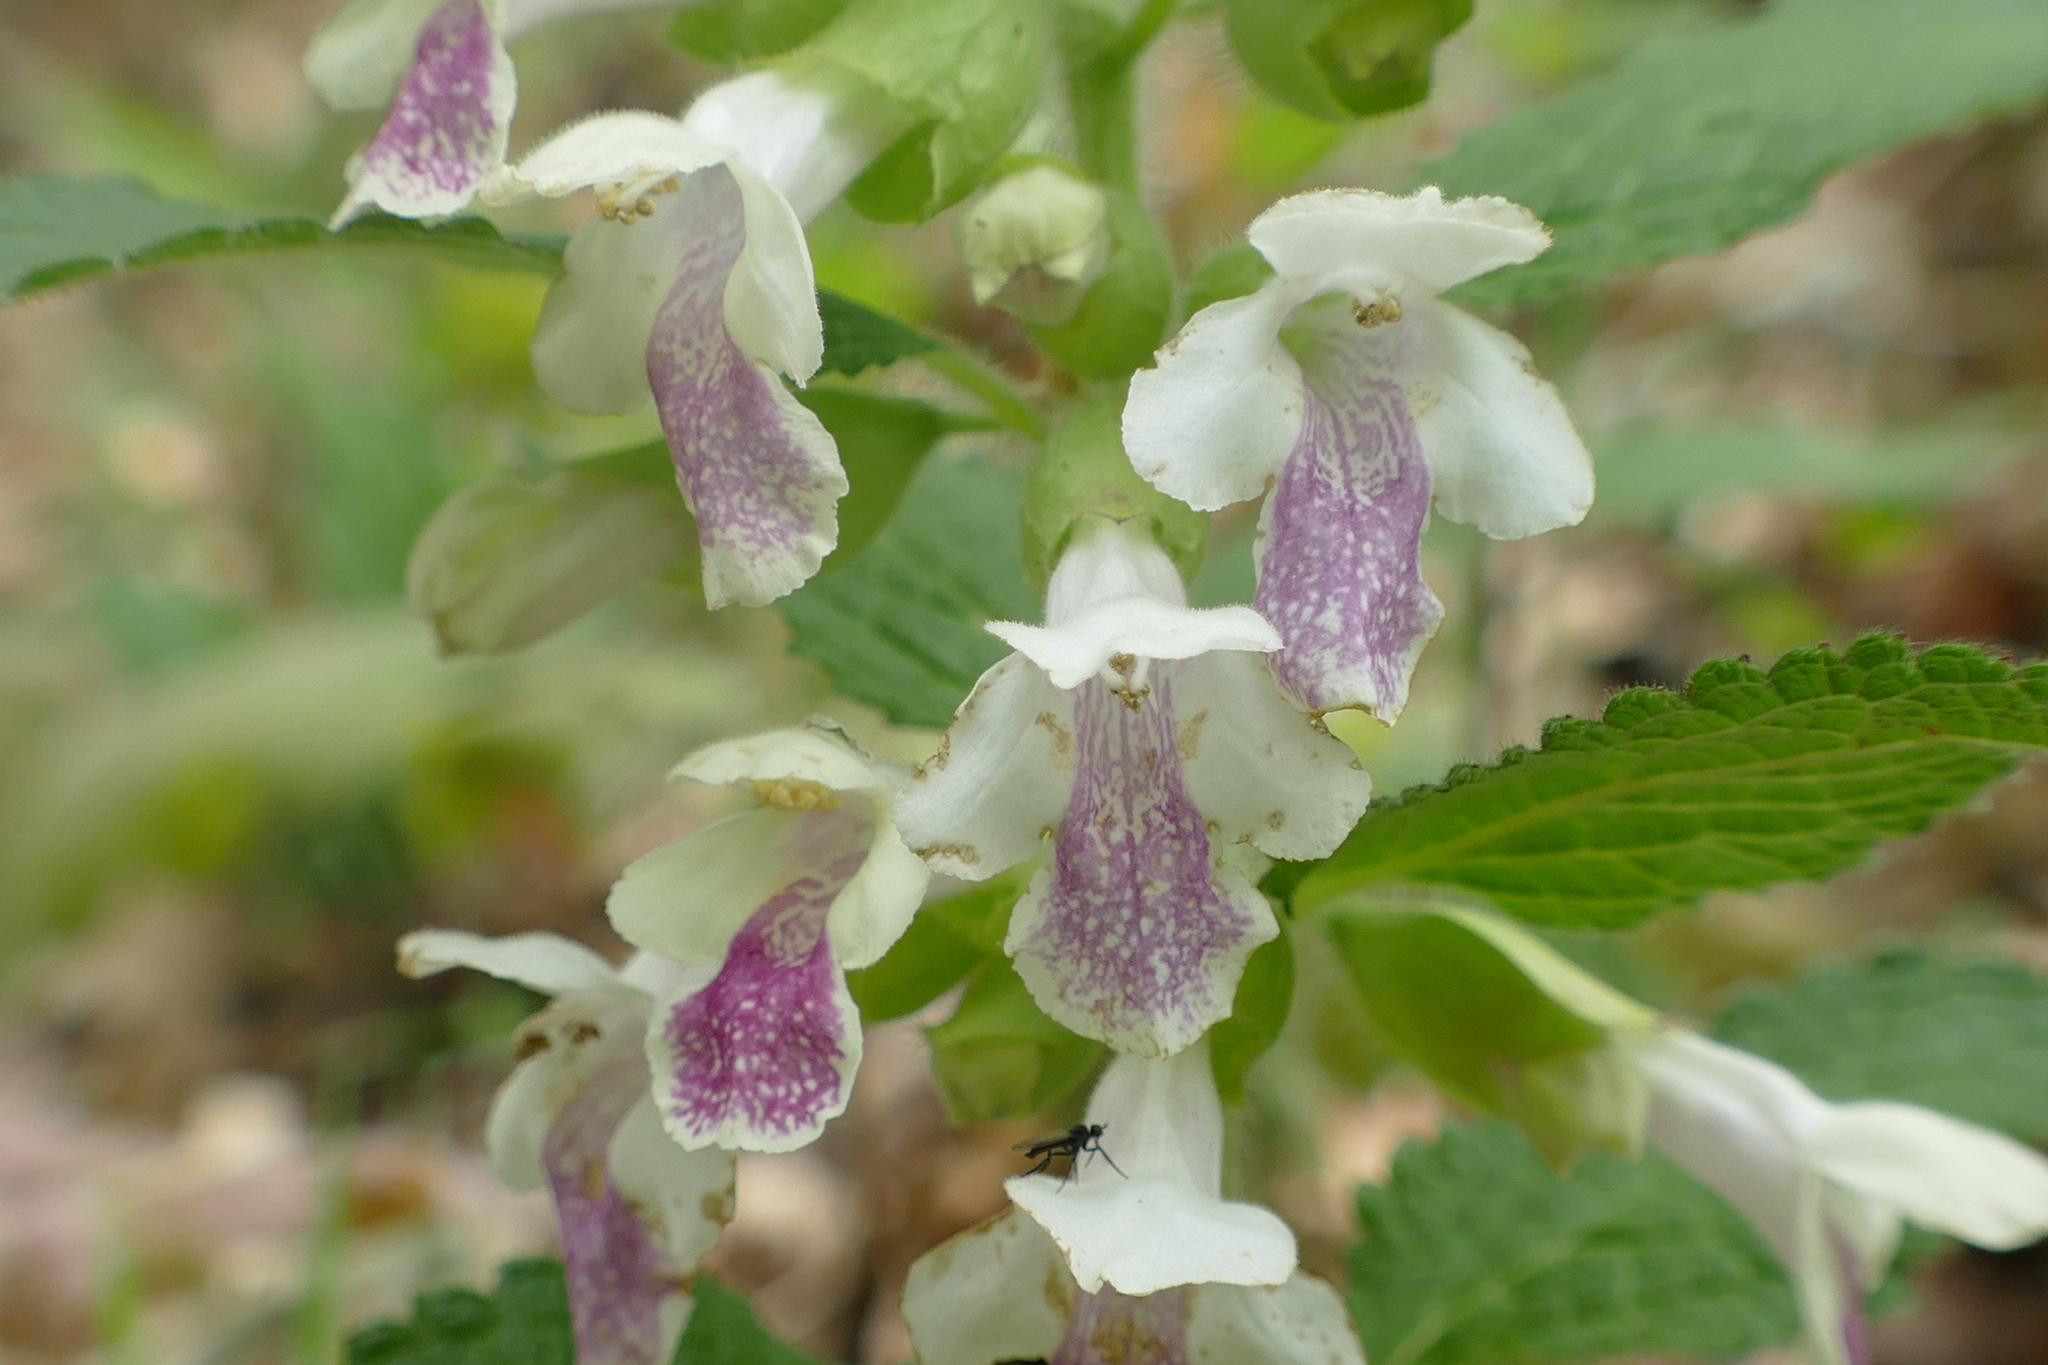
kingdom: Plantae
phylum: Tracheophyta
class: Magnoliopsida
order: Lamiales
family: Lamiaceae
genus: Melittis
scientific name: Melittis melissophyllum
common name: Bastard balm
